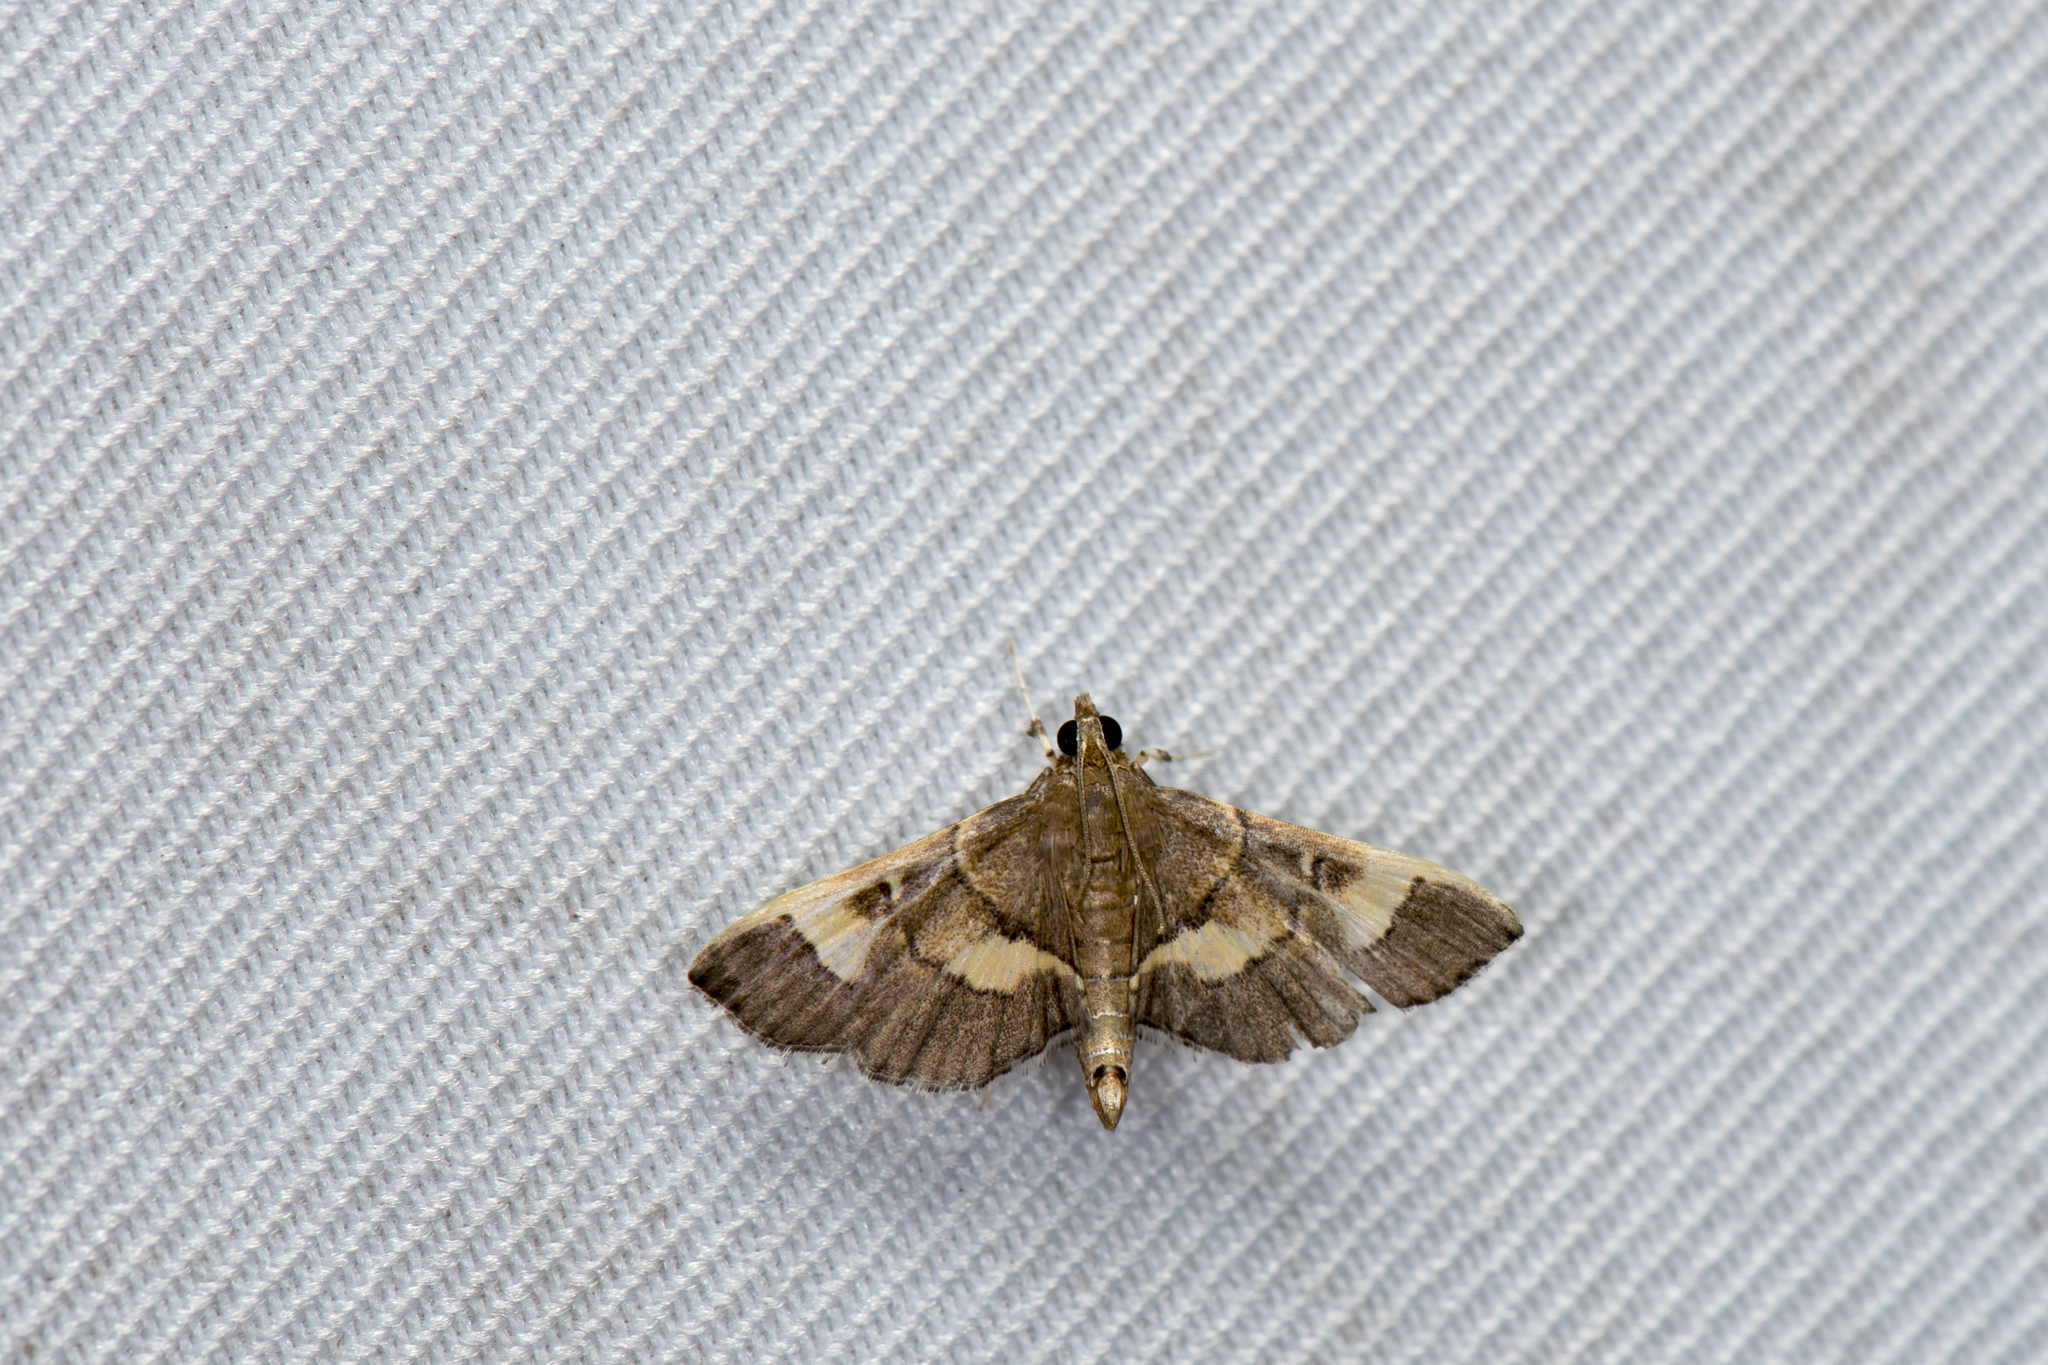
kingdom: Animalia
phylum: Arthropoda
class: Insecta
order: Lepidoptera
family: Crambidae
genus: Syngamia
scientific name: Syngamia falsidicalis
